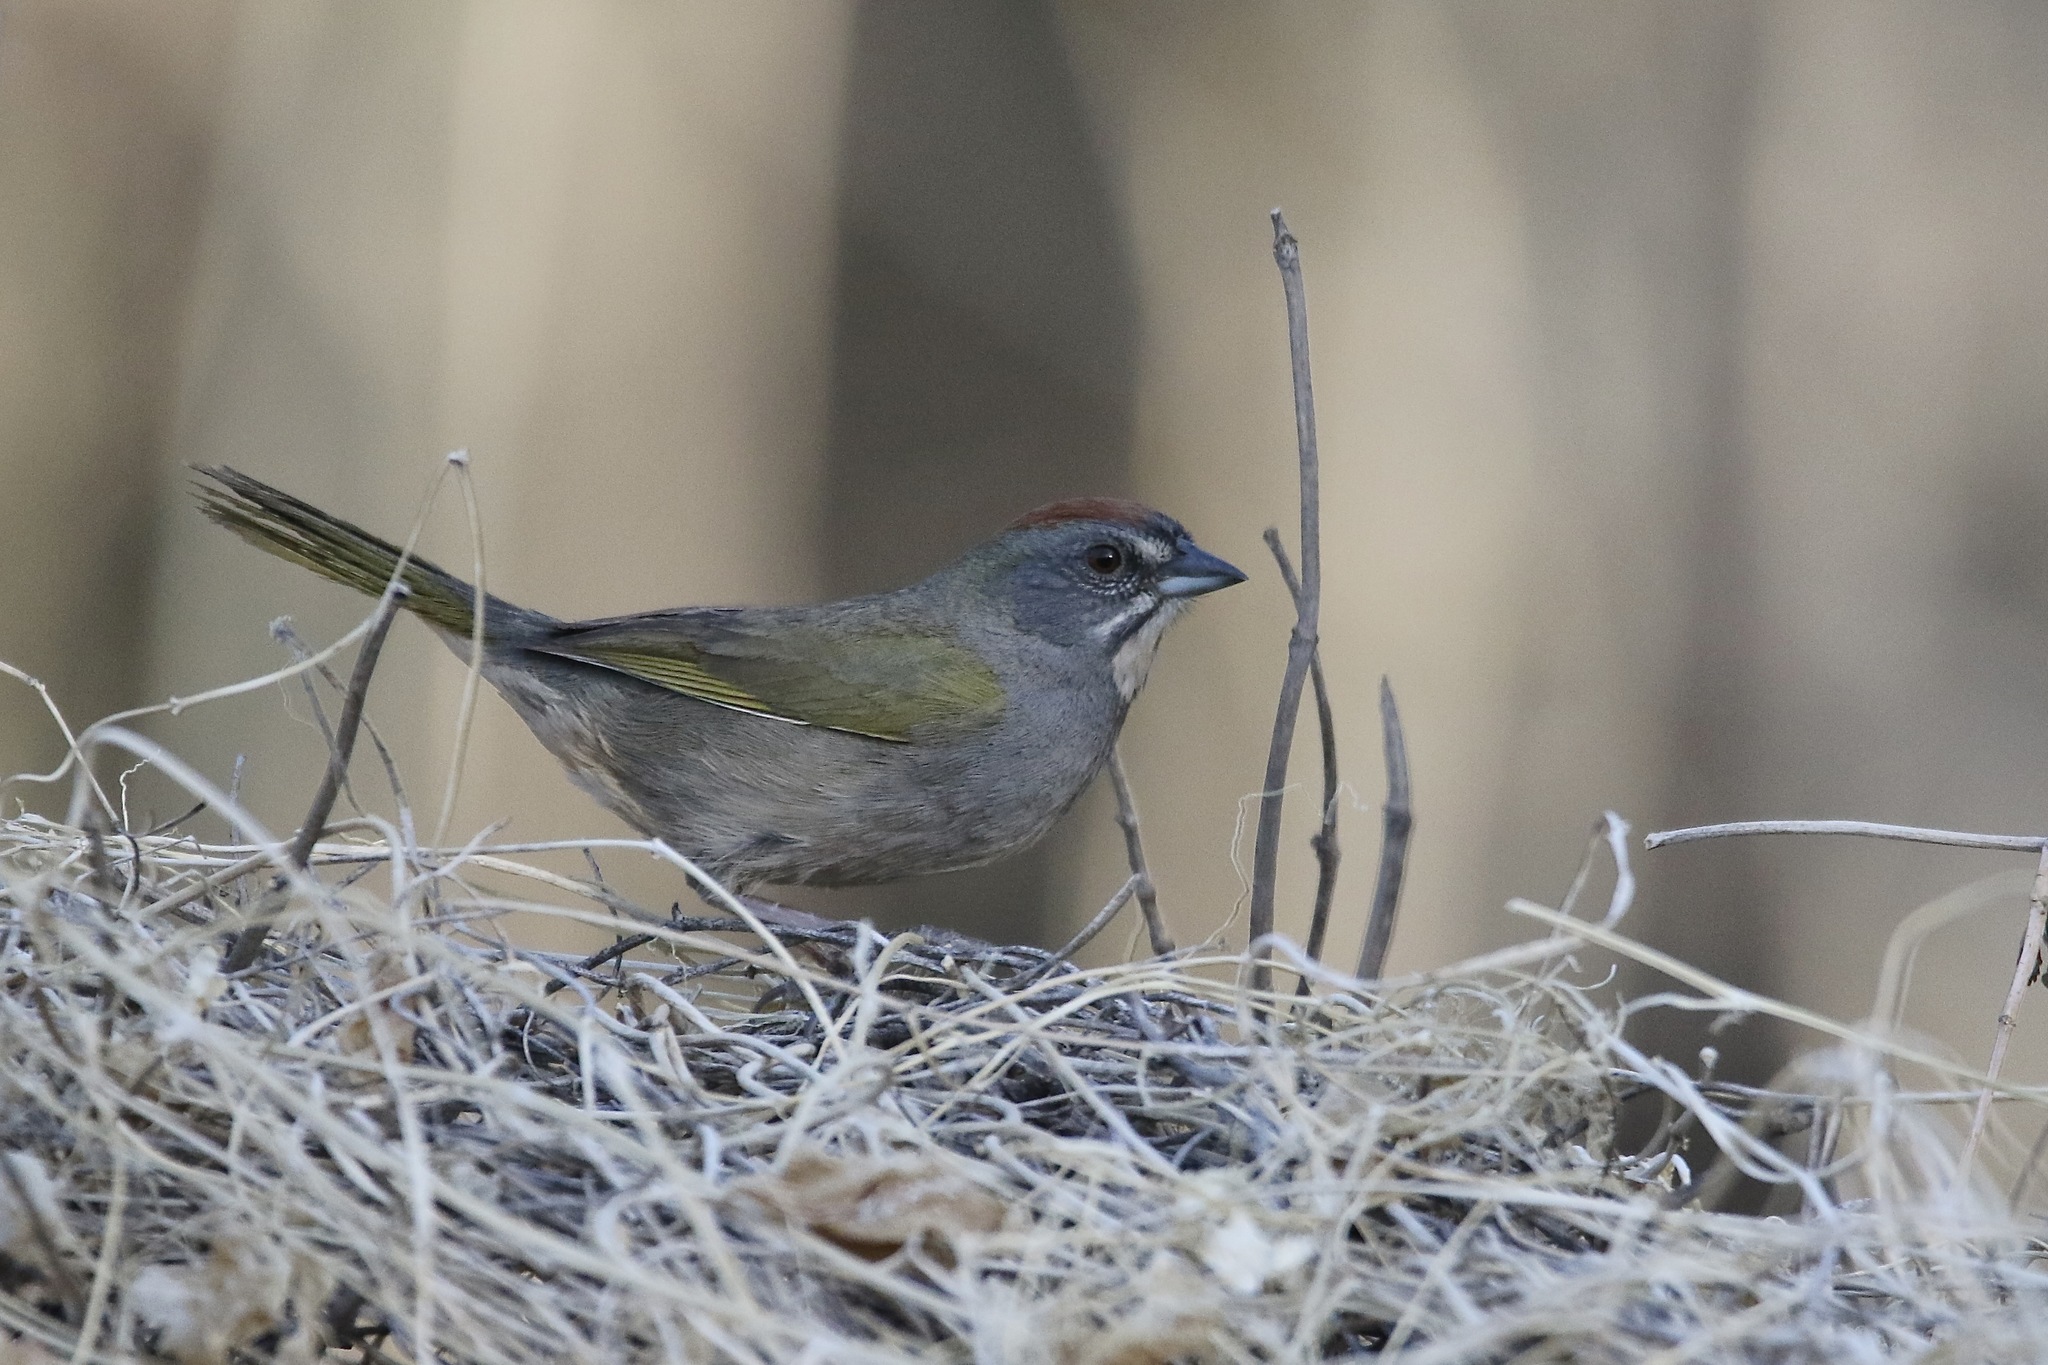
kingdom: Animalia
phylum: Chordata
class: Aves
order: Passeriformes
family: Passerellidae
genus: Pipilo
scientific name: Pipilo chlorurus
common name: Green-tailed towhee
